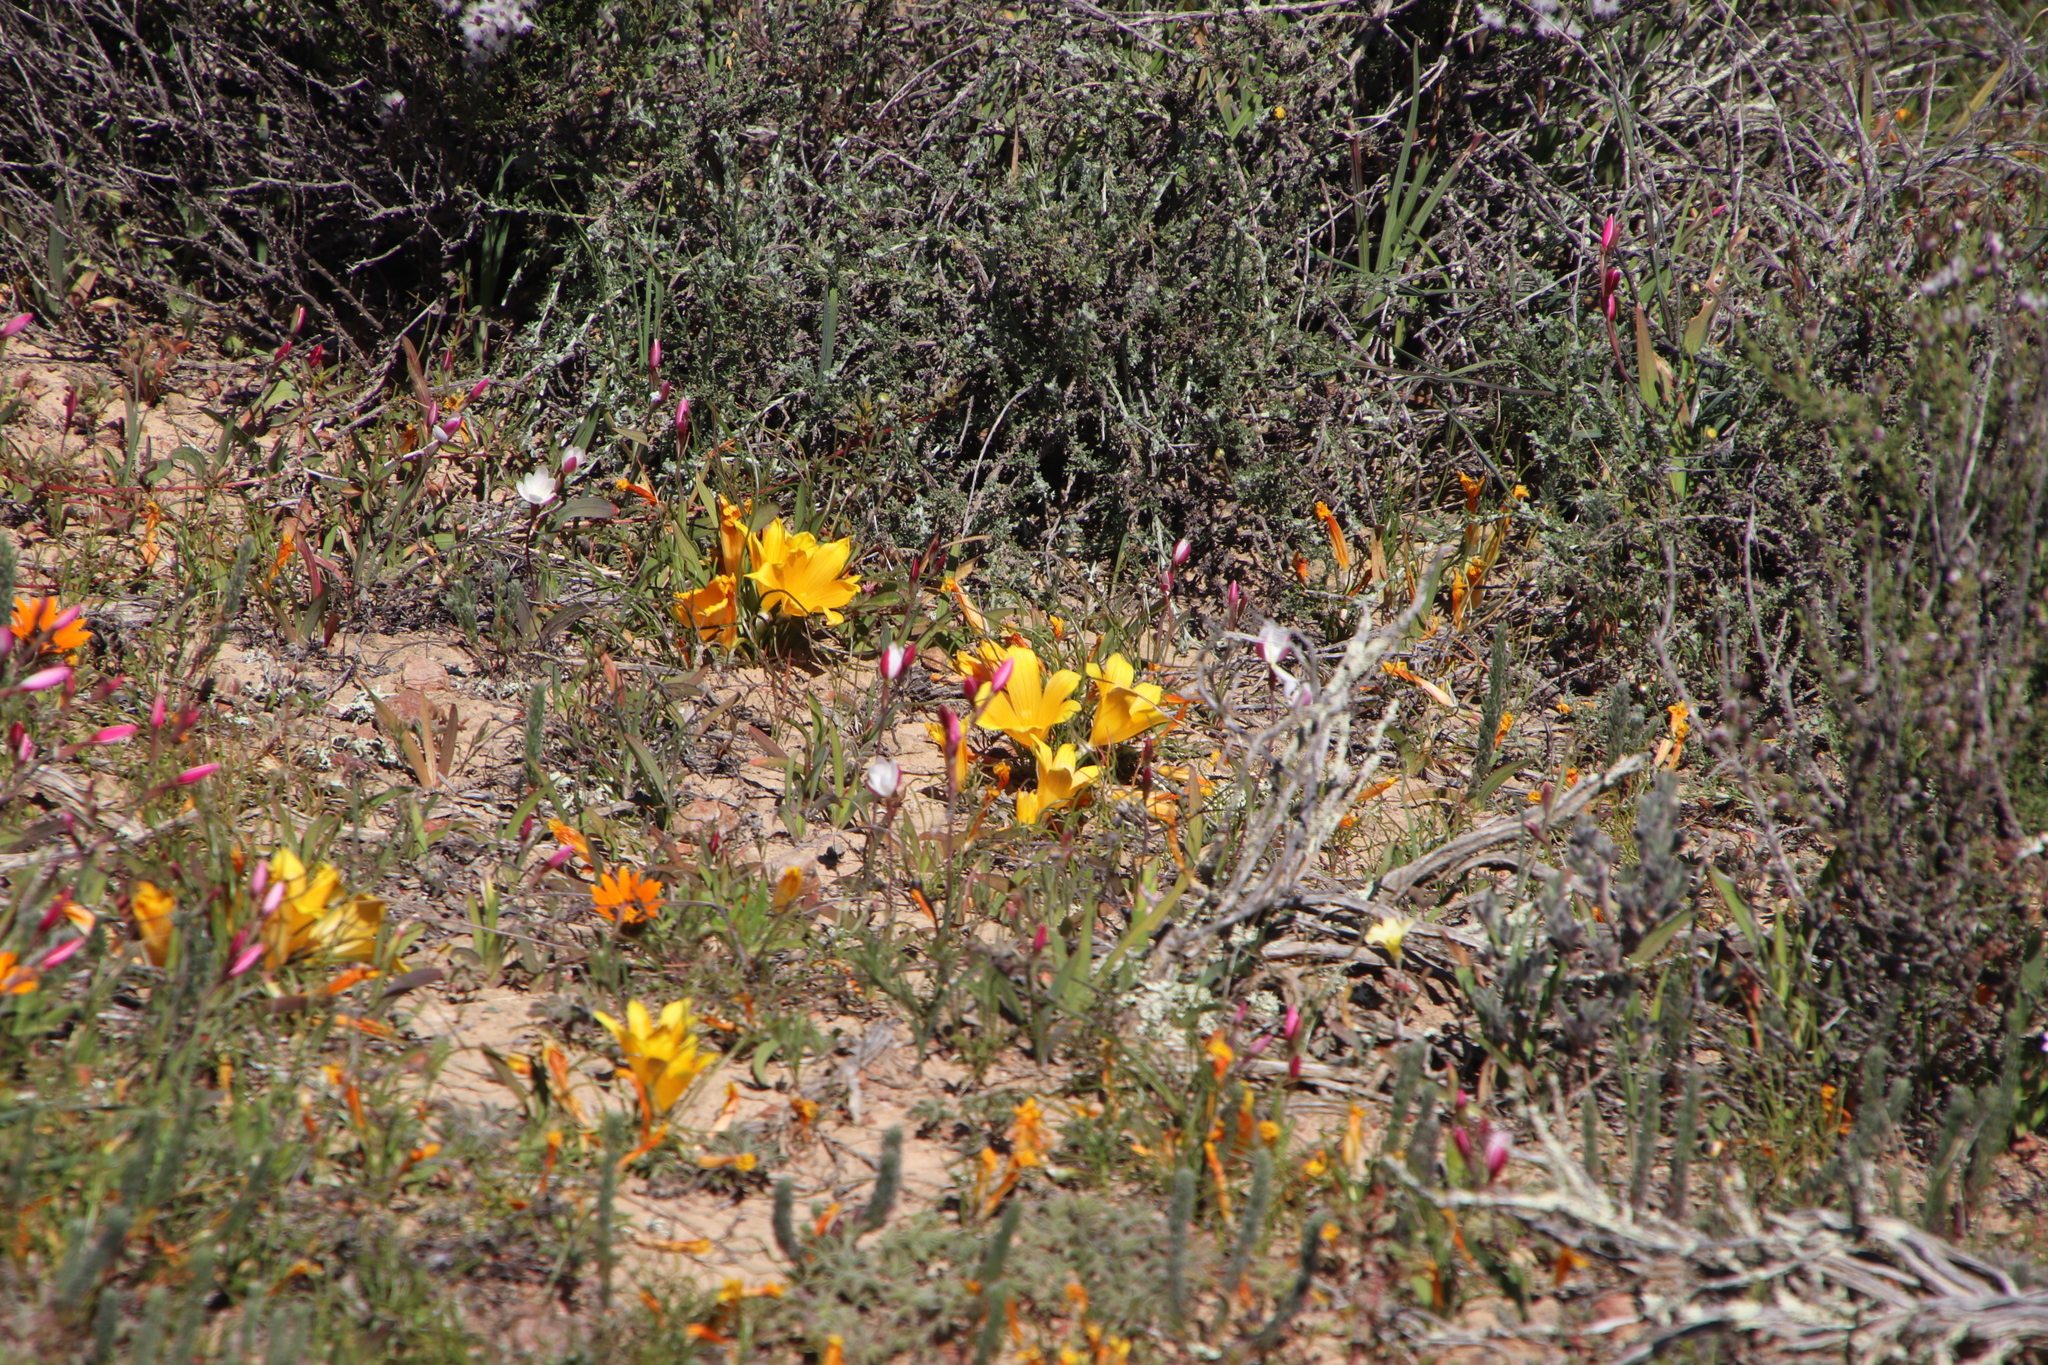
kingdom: Plantae
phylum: Tracheophyta
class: Liliopsida
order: Asparagales
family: Iridaceae
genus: Romulea
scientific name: Romulea tortuosa
